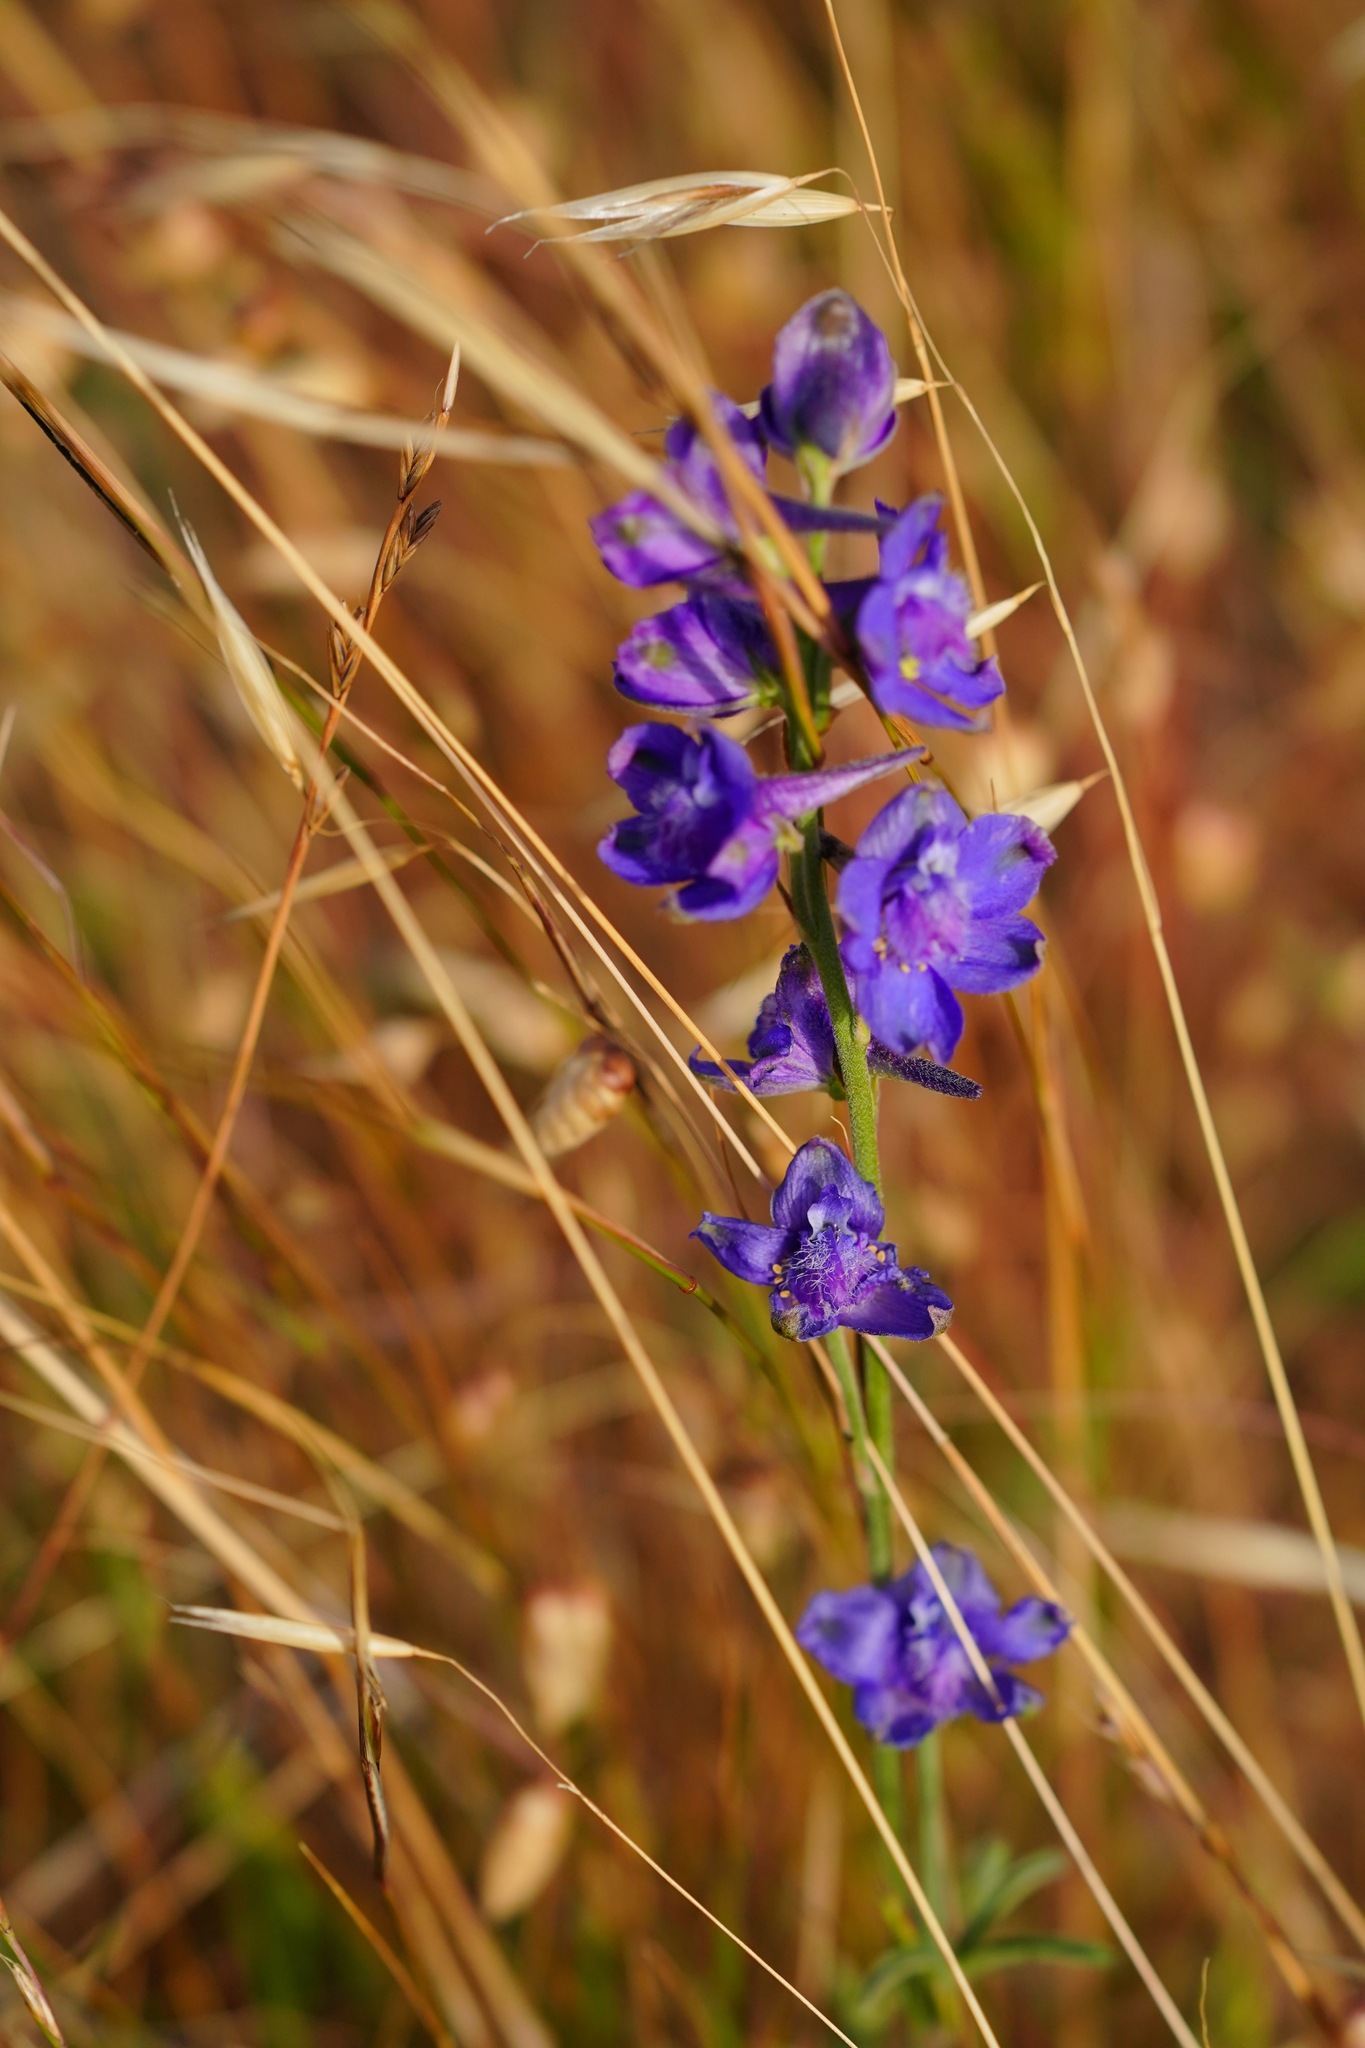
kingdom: Plantae
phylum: Tracheophyta
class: Magnoliopsida
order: Ranunculales
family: Ranunculaceae
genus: Delphinium
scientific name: Delphinium hesperium
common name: Western larkspur
